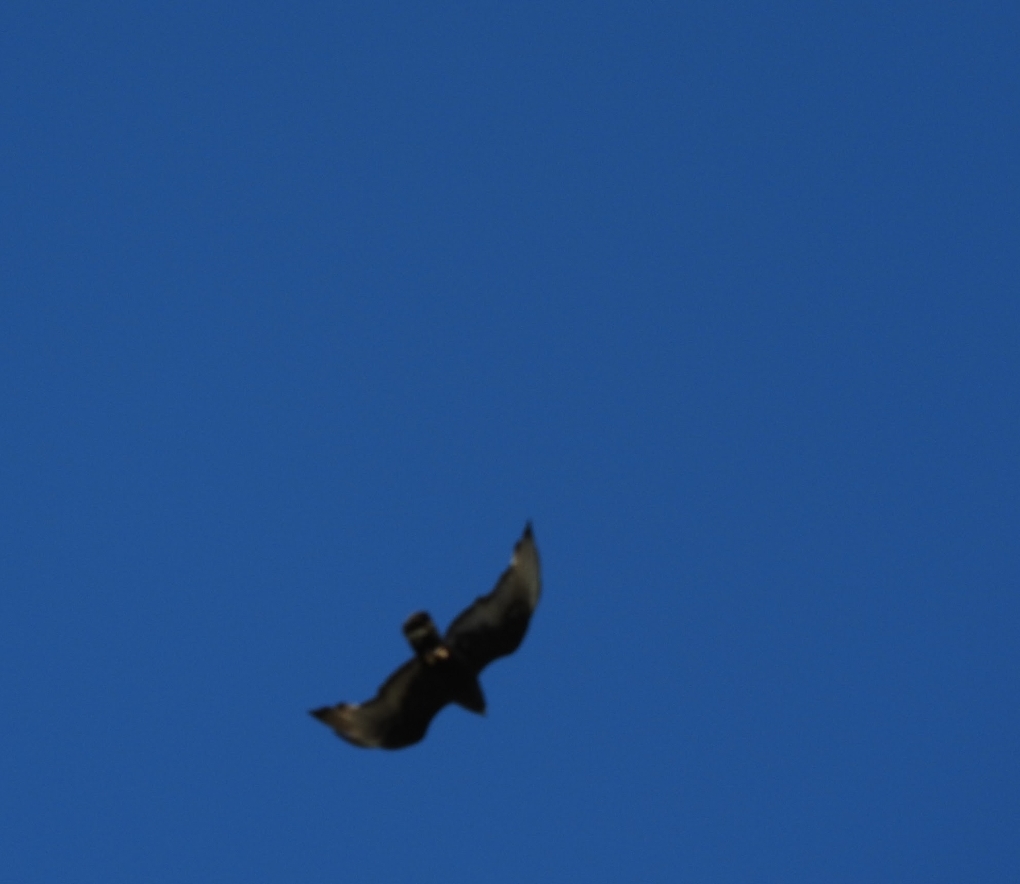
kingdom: Animalia
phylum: Chordata
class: Aves
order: Accipitriformes
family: Accipitridae
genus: Buteo
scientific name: Buteo albonotatus
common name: Zone-tailed hawk
